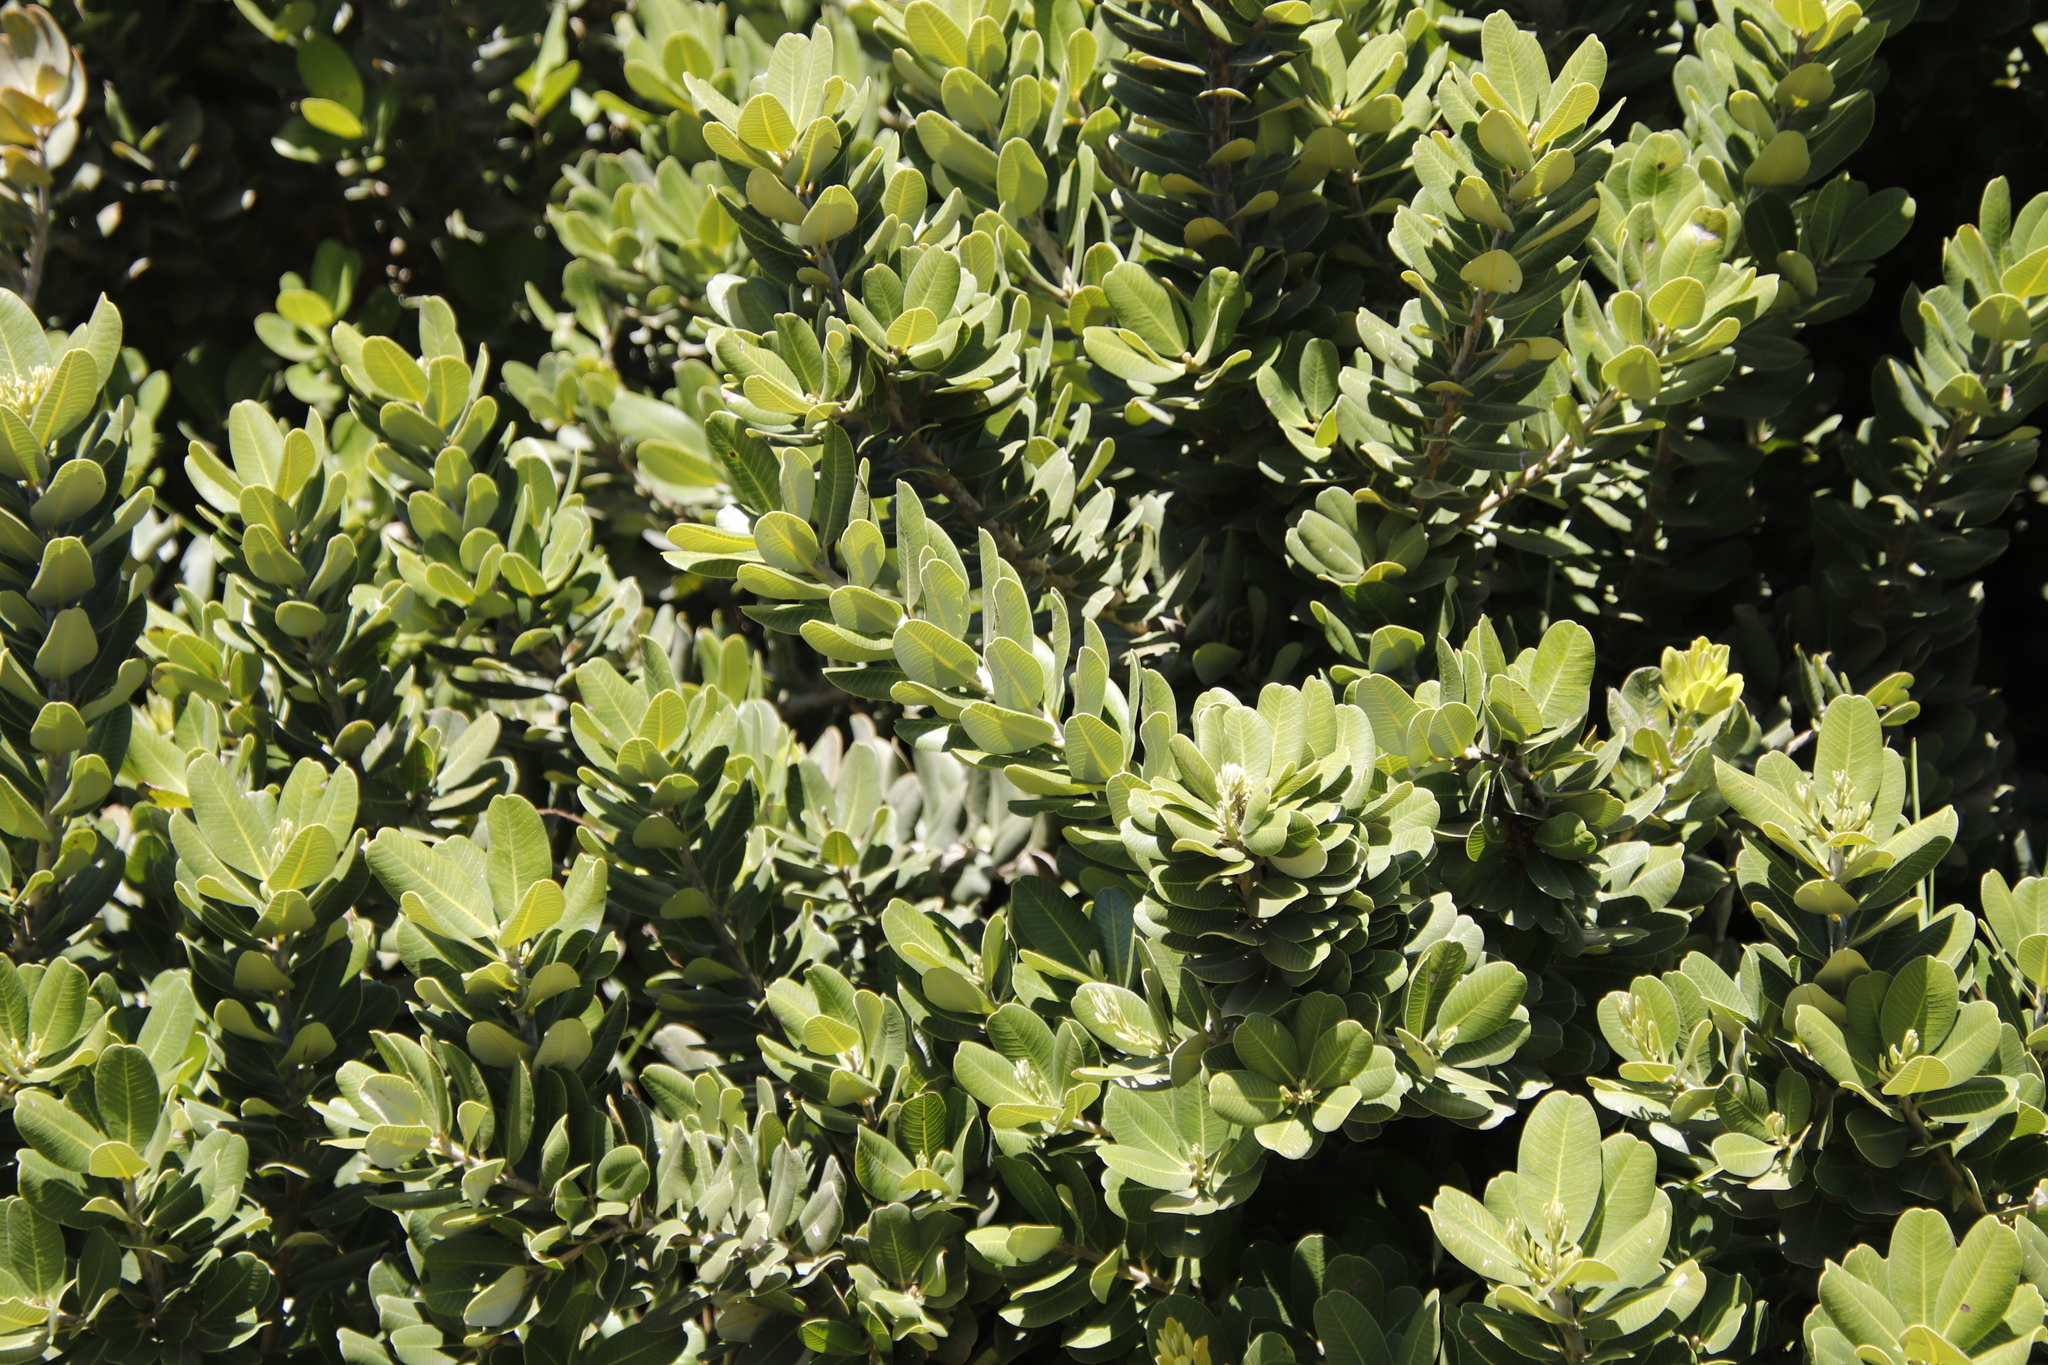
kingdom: Plantae
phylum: Tracheophyta
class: Magnoliopsida
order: Sapindales
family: Anacardiaceae
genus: Heeria
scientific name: Heeria argentea
